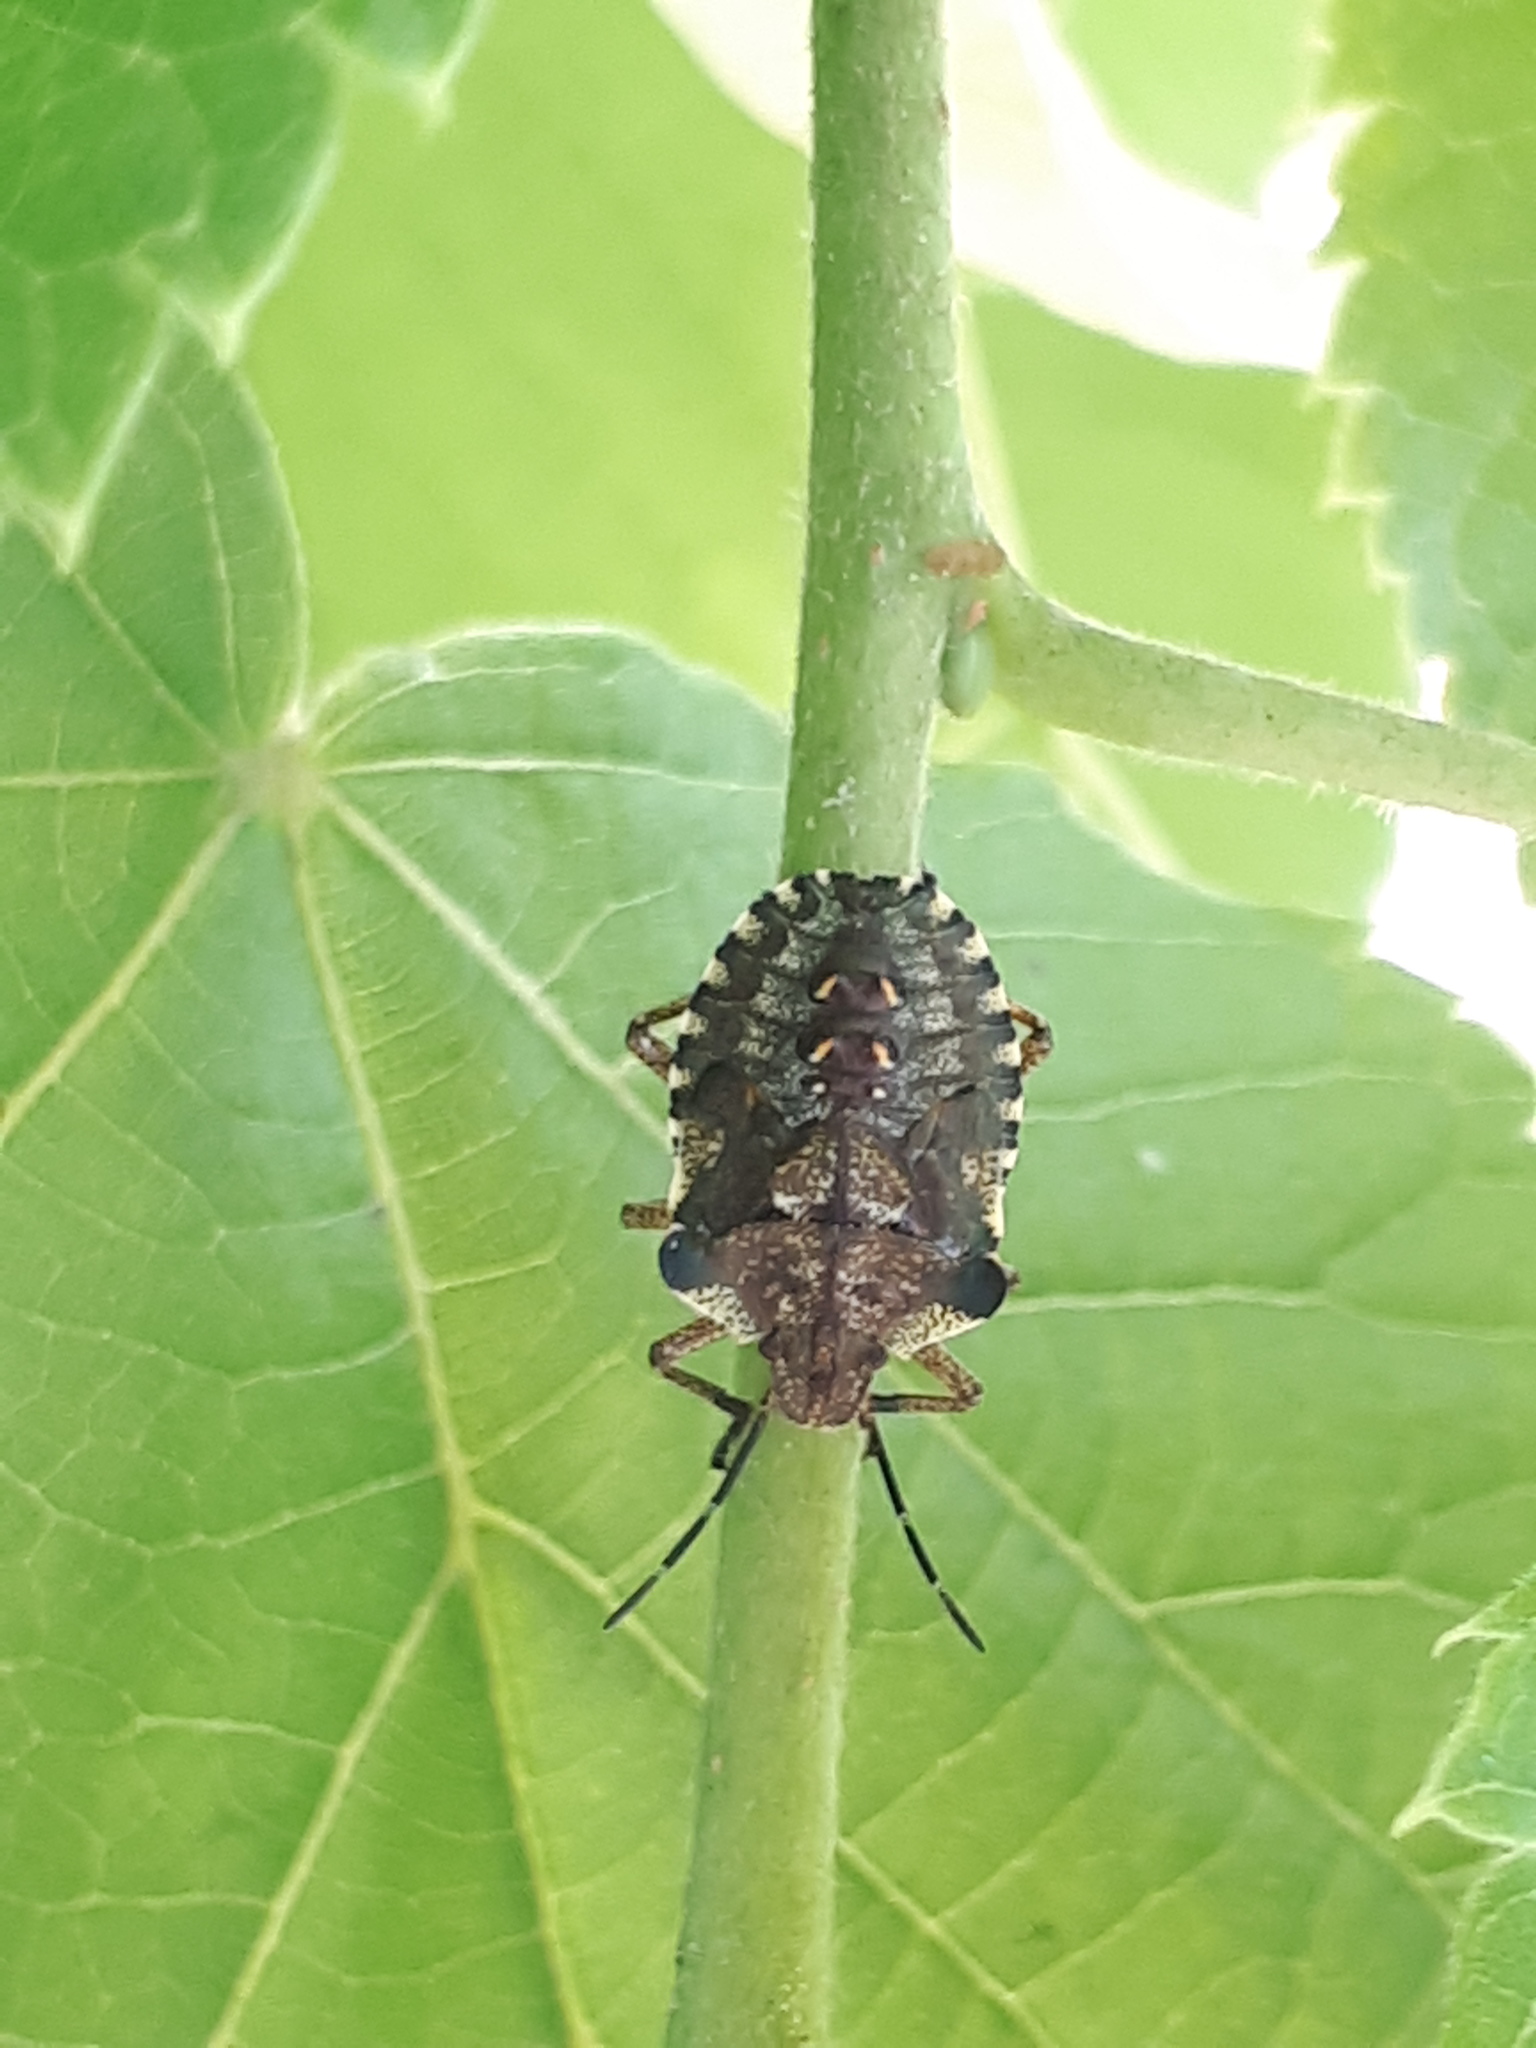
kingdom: Animalia
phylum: Arthropoda
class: Insecta
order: Hemiptera
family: Pentatomidae
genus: Pentatoma
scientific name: Pentatoma rufipes
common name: Forest bug
